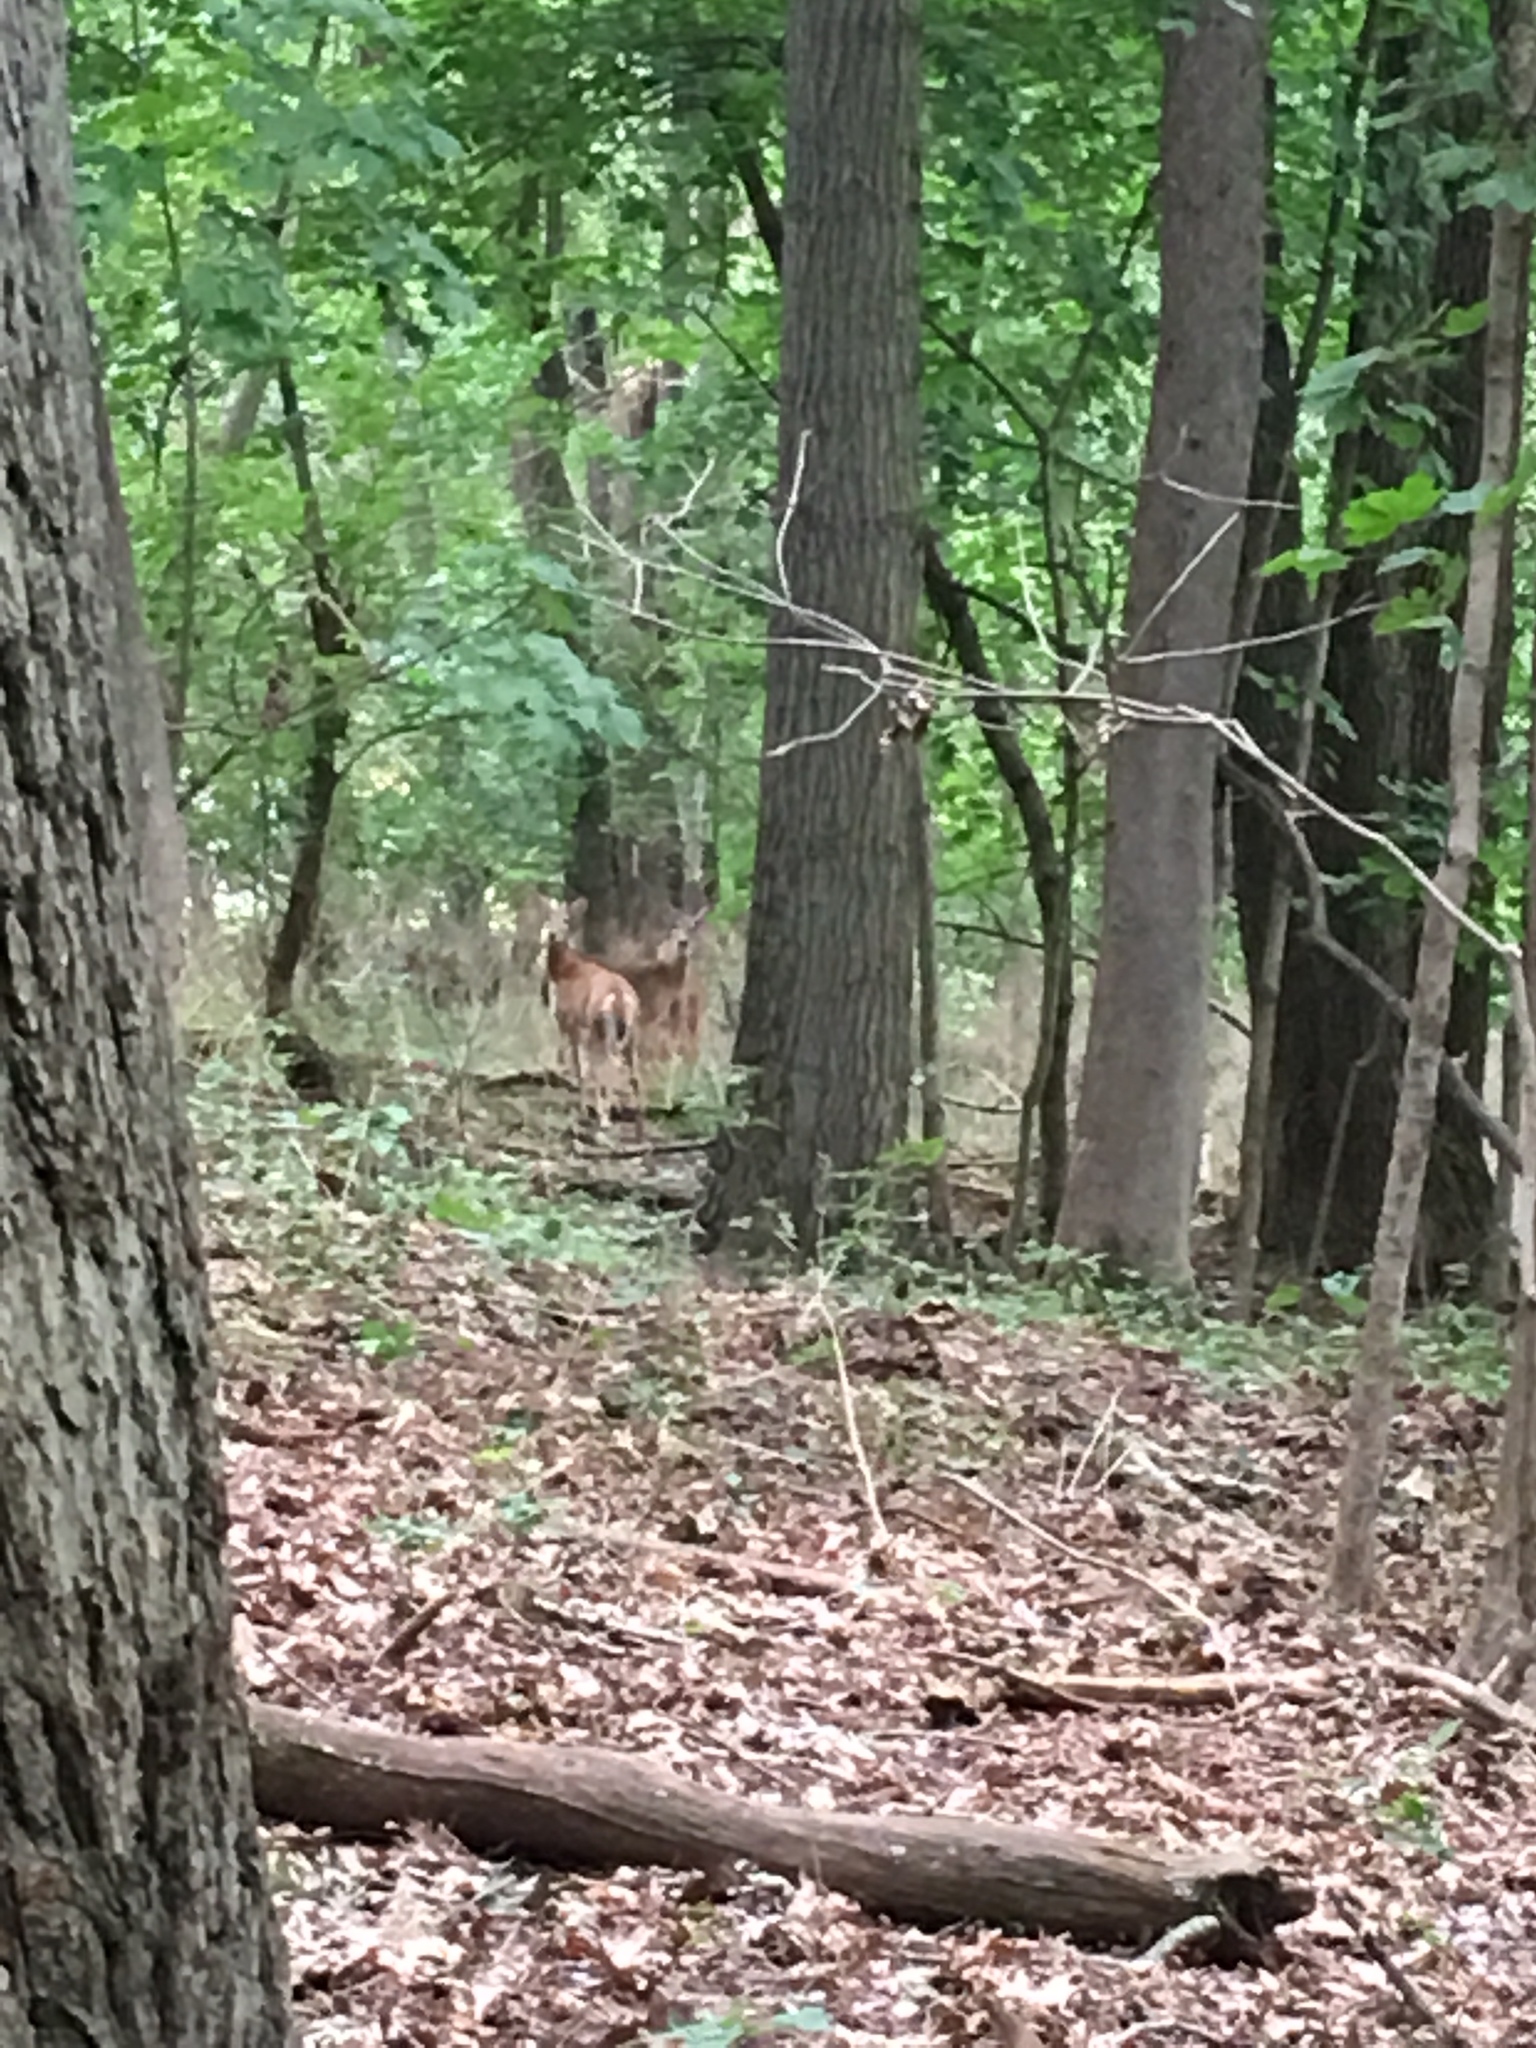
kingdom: Animalia
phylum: Chordata
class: Mammalia
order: Artiodactyla
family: Cervidae
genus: Odocoileus
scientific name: Odocoileus virginianus
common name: White-tailed deer
